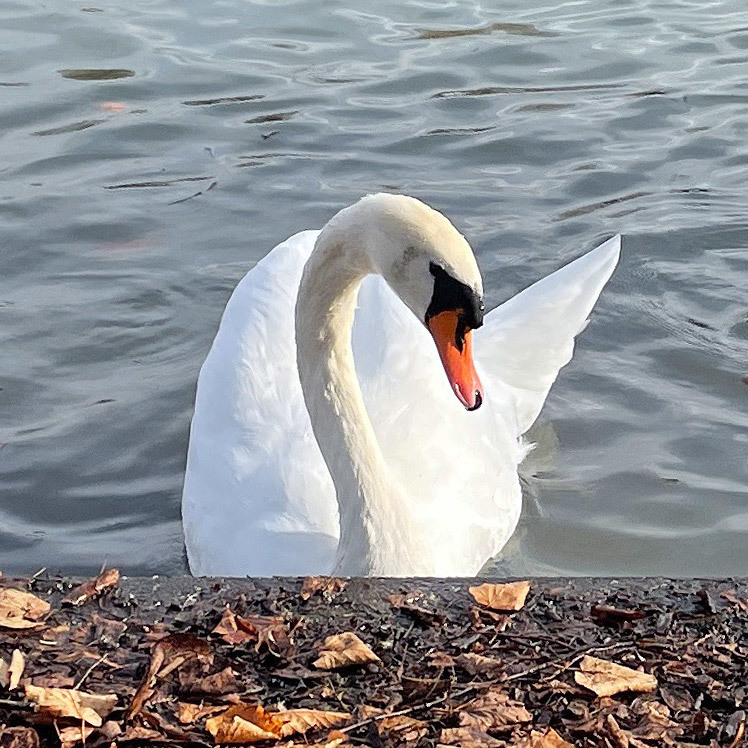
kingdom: Animalia
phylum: Chordata
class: Aves
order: Anseriformes
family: Anatidae
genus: Cygnus
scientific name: Cygnus olor
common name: Mute swan
